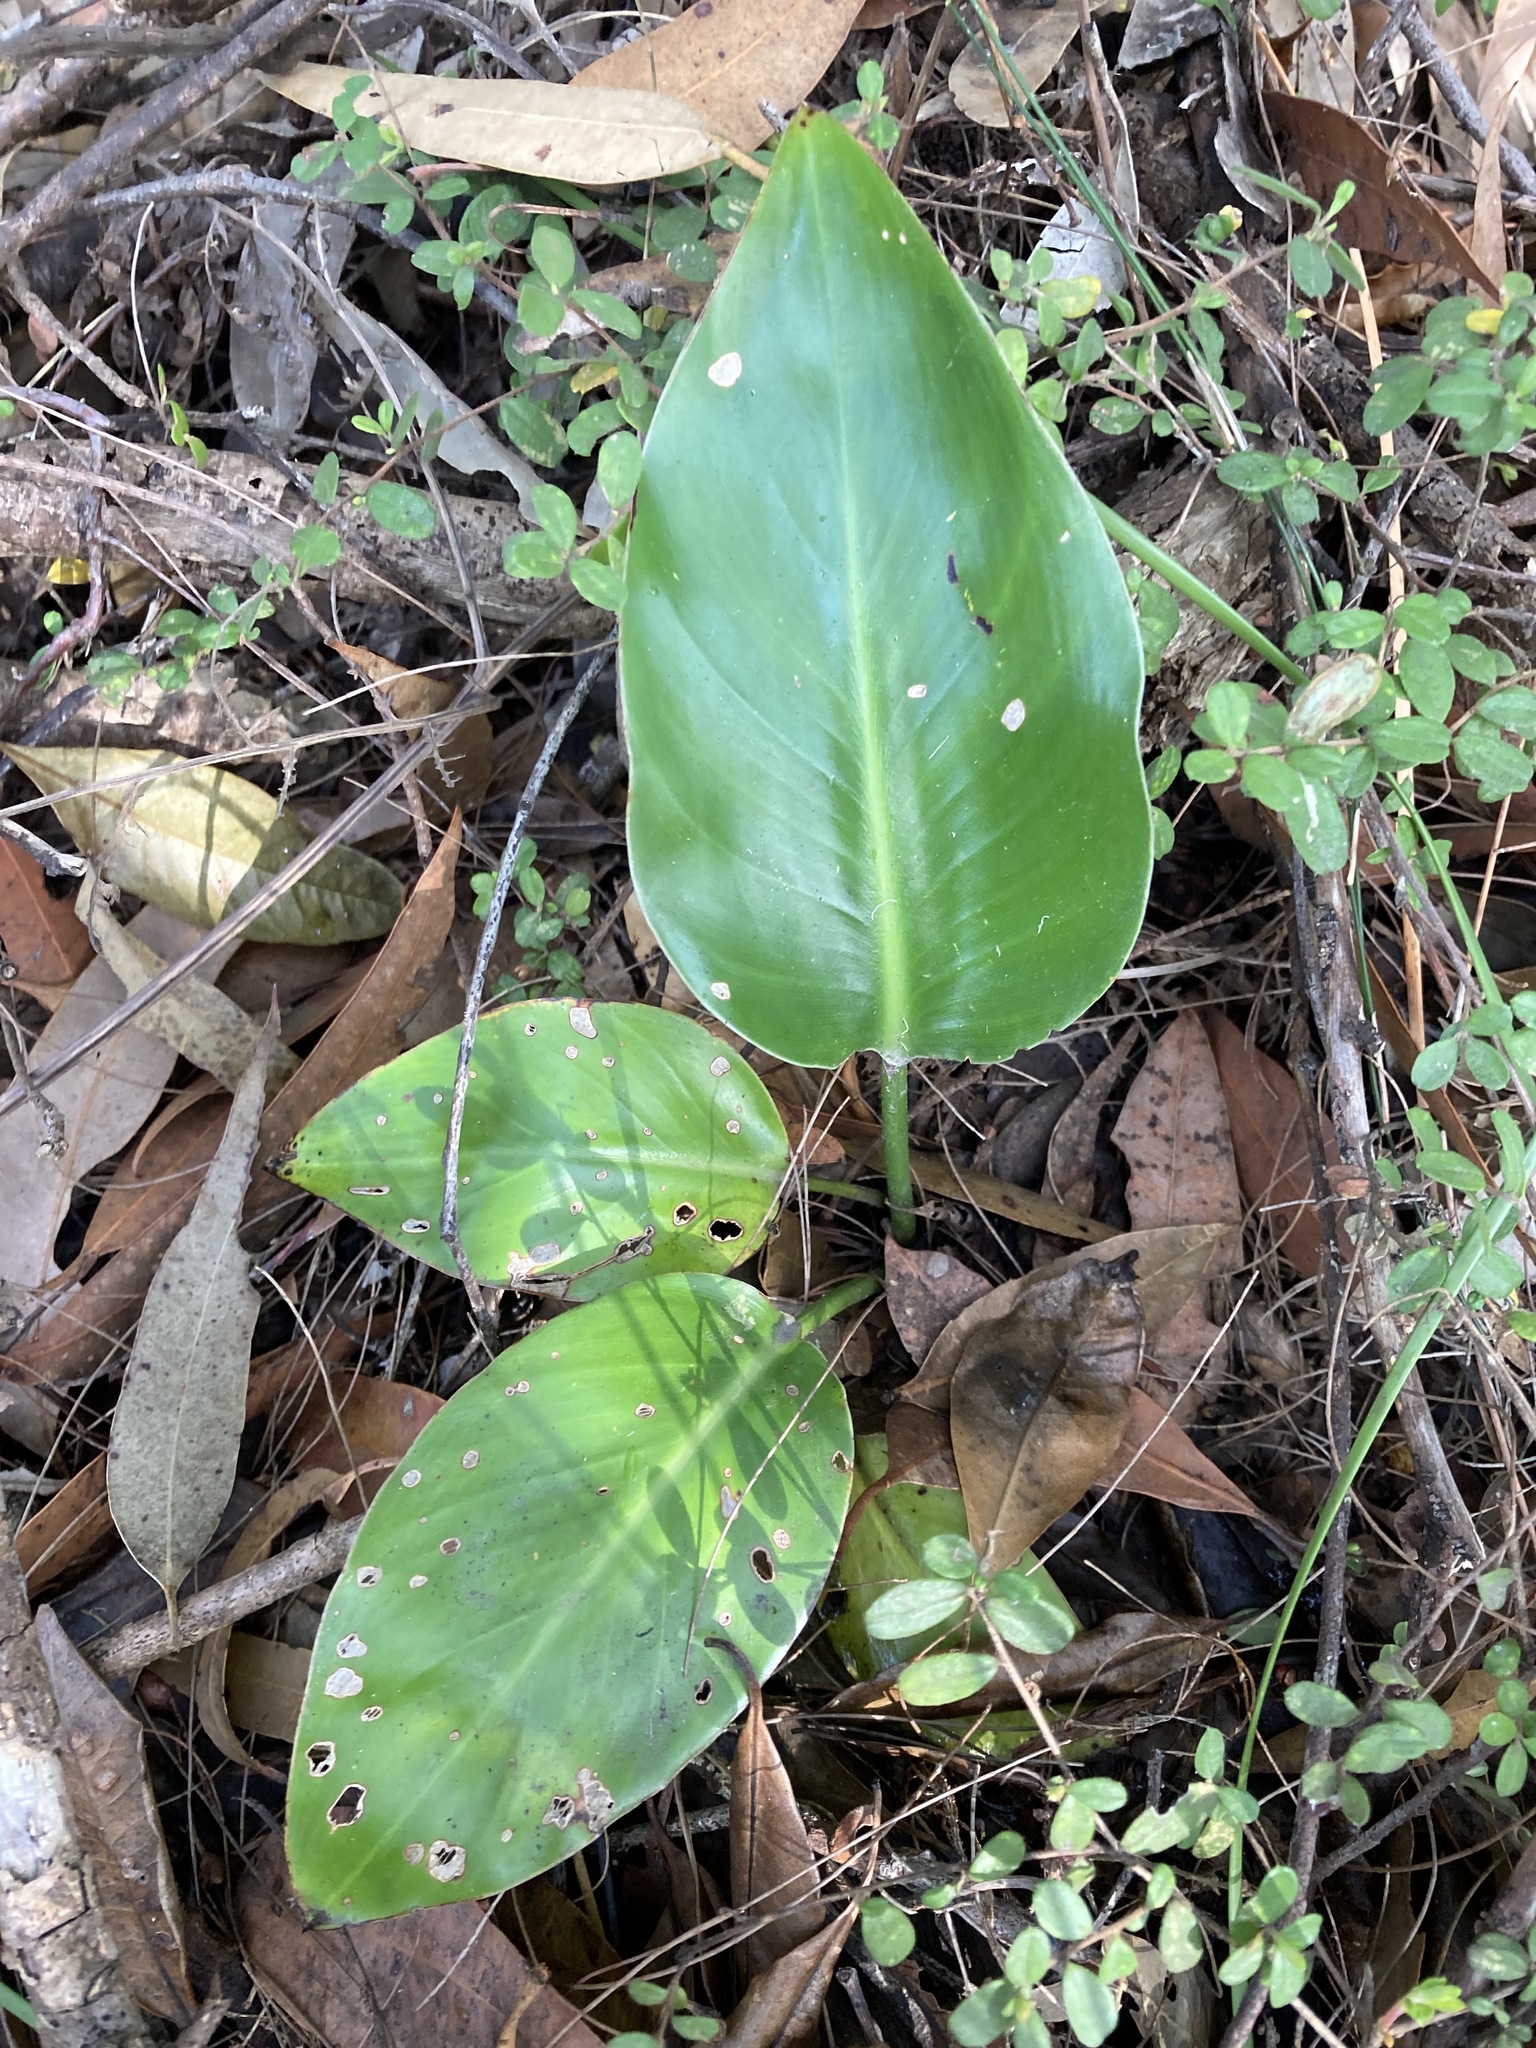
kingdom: Plantae
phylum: Tracheophyta
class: Liliopsida
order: Zingiberales
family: Strelitziaceae
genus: Strelitzia
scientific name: Strelitzia nicolai
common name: Bird-of-paradise tree
